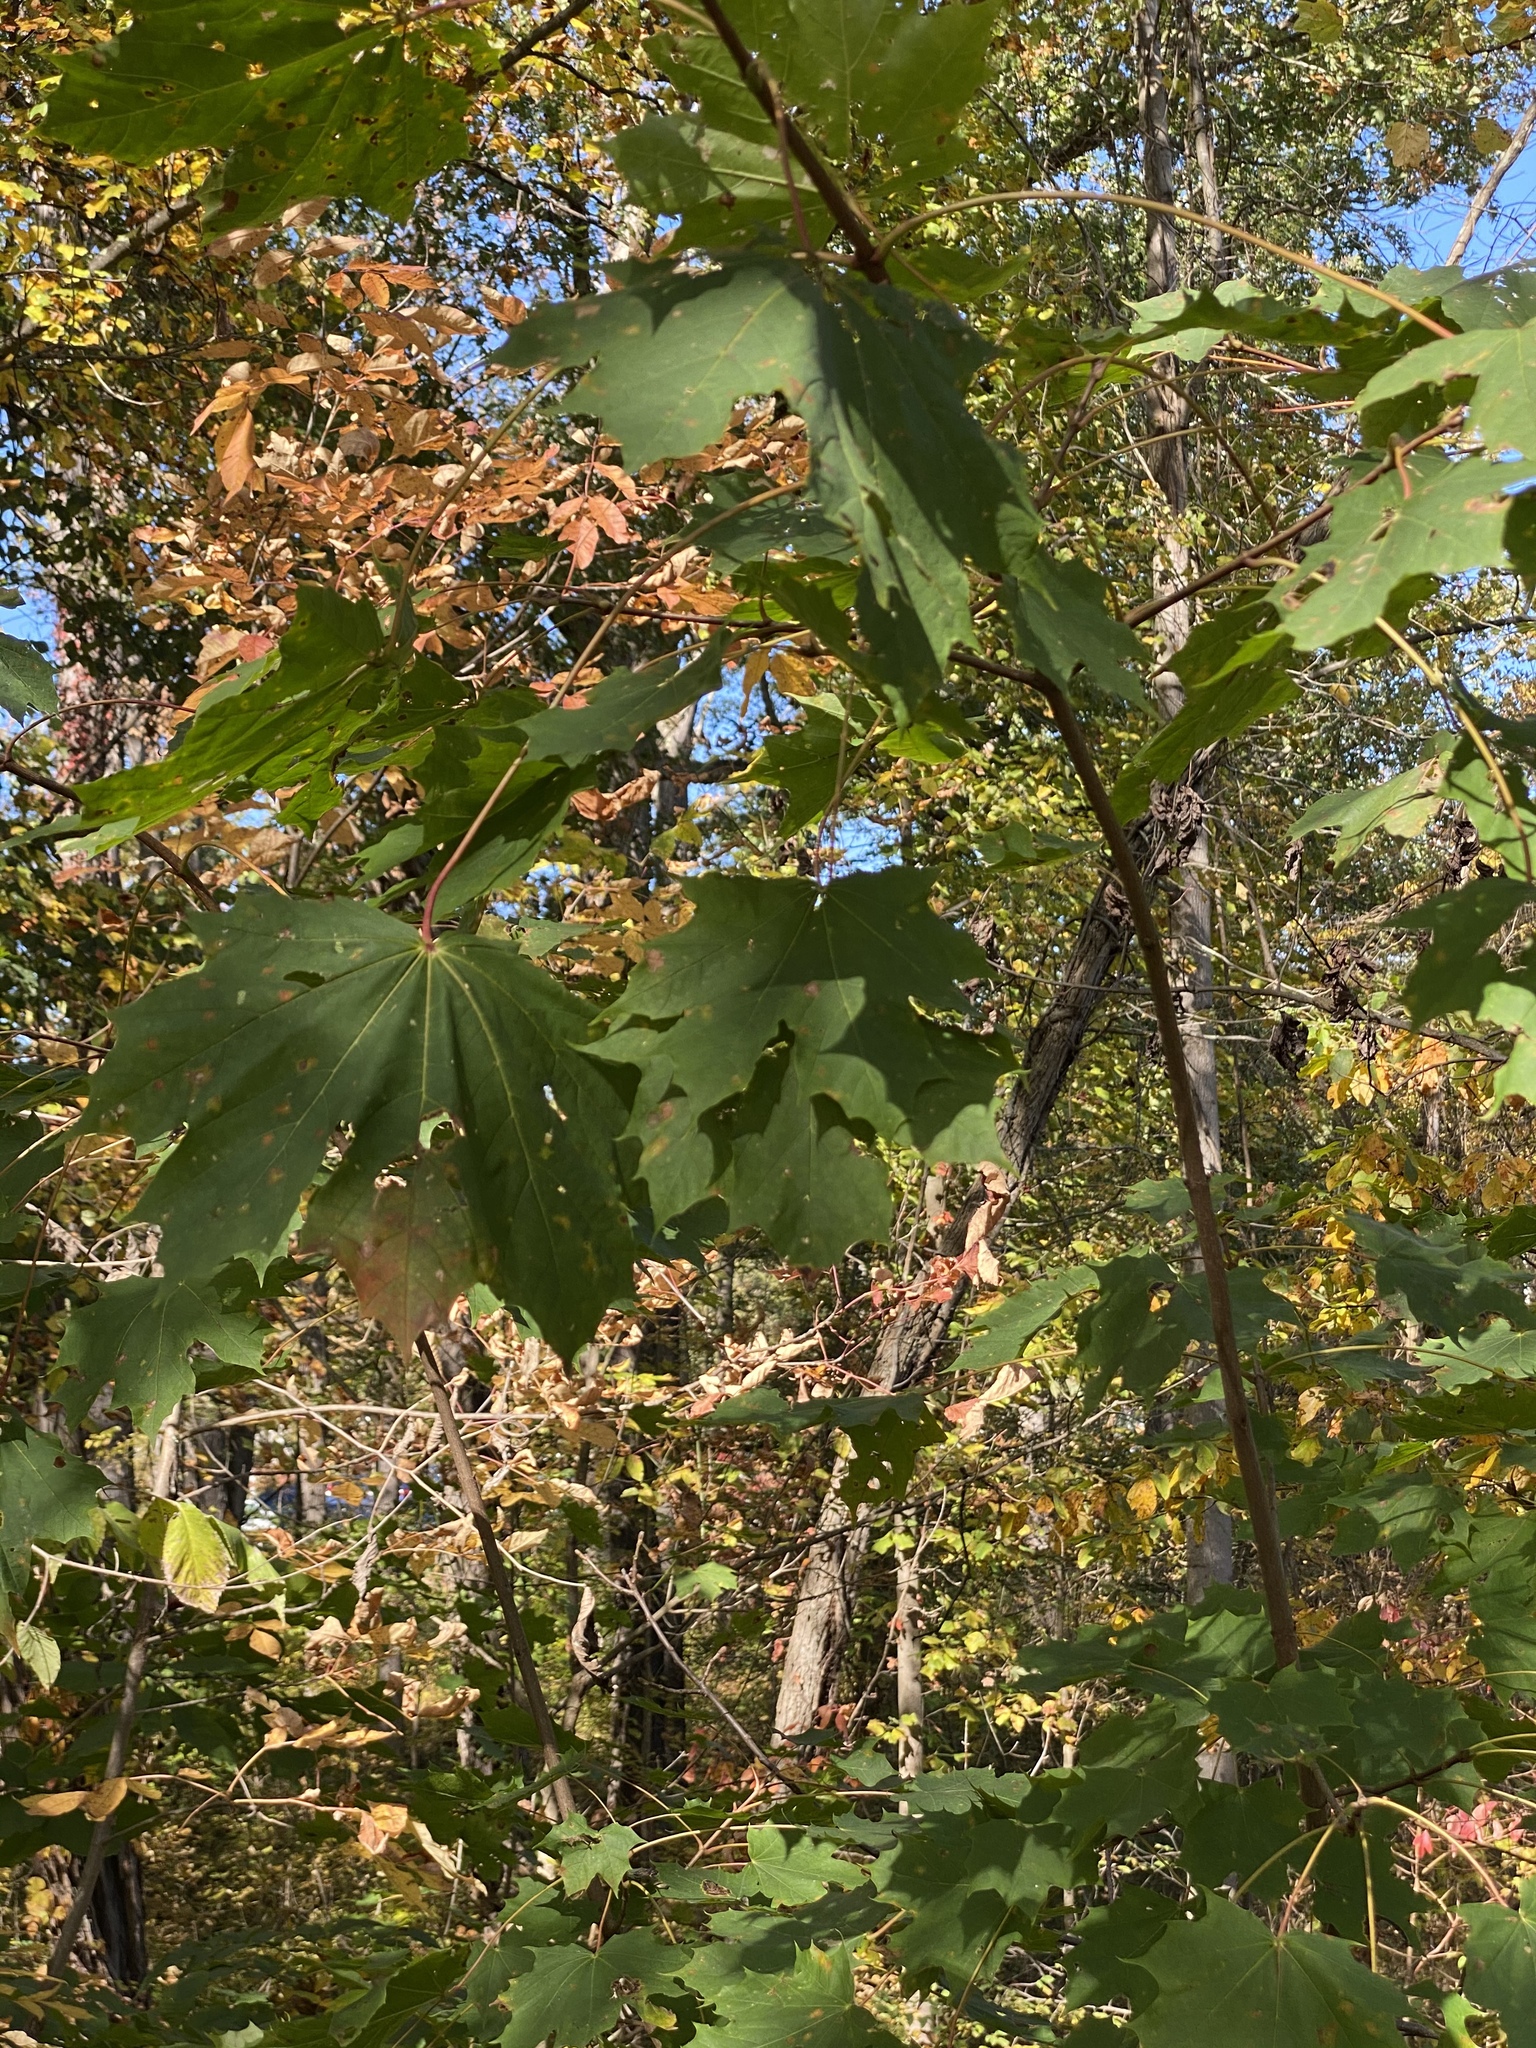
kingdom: Plantae
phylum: Tracheophyta
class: Magnoliopsida
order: Sapindales
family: Sapindaceae
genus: Acer
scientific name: Acer platanoides
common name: Norway maple
